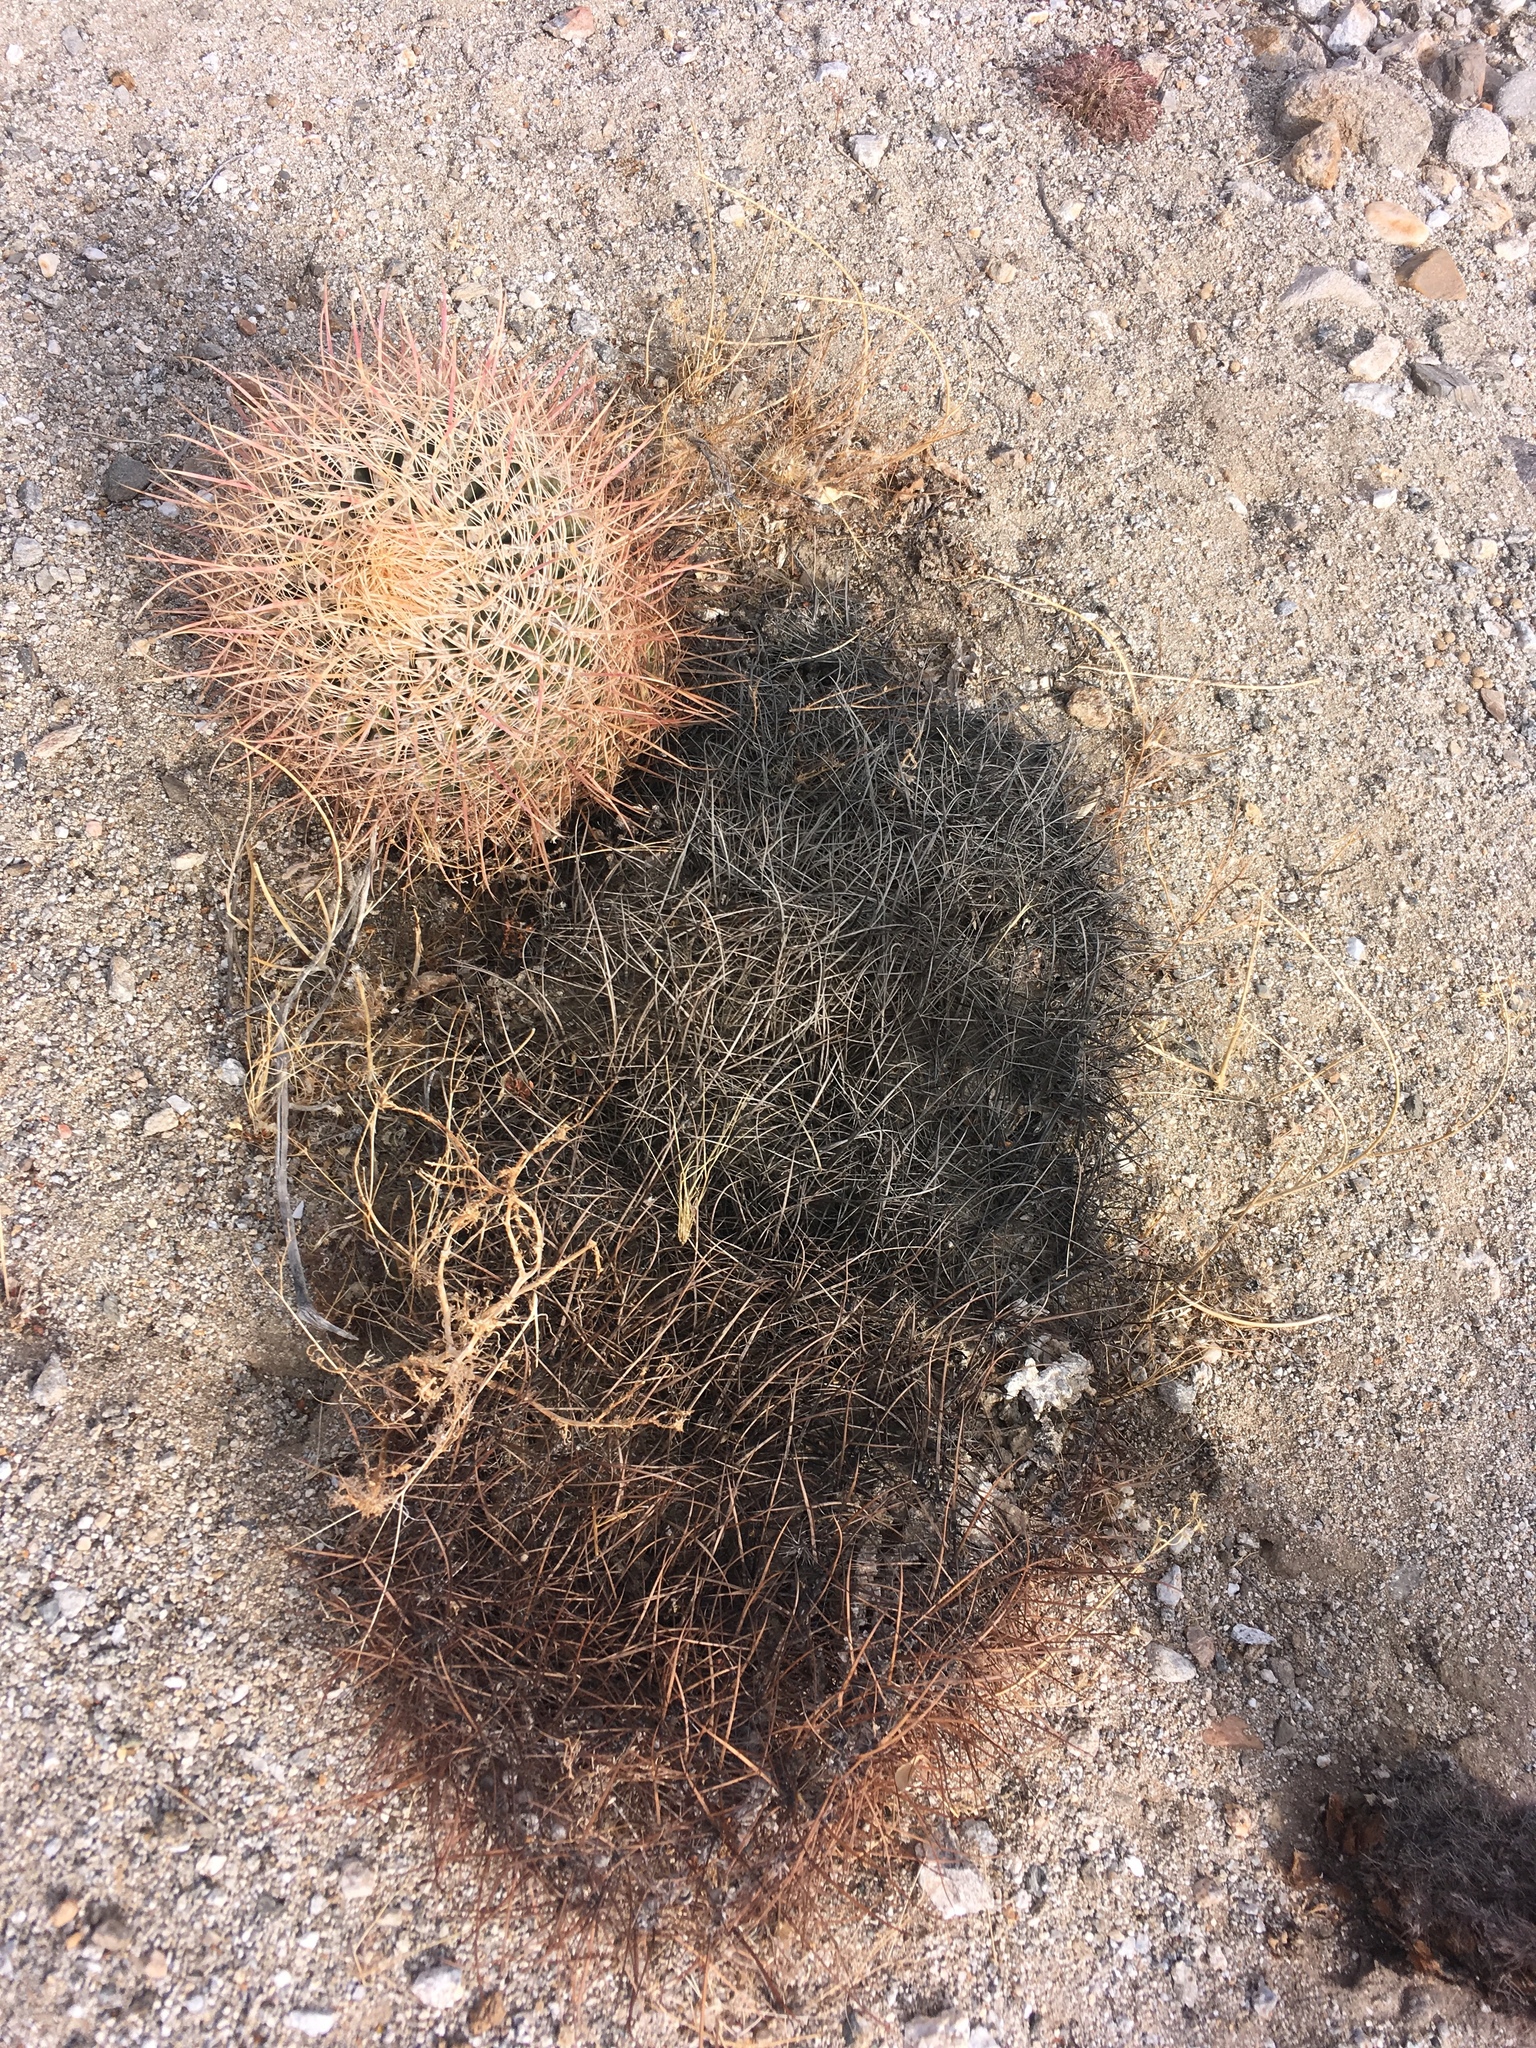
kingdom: Plantae
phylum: Tracheophyta
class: Magnoliopsida
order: Caryophyllales
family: Cactaceae
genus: Ferocactus
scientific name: Ferocactus cylindraceus
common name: California barrel cactus
